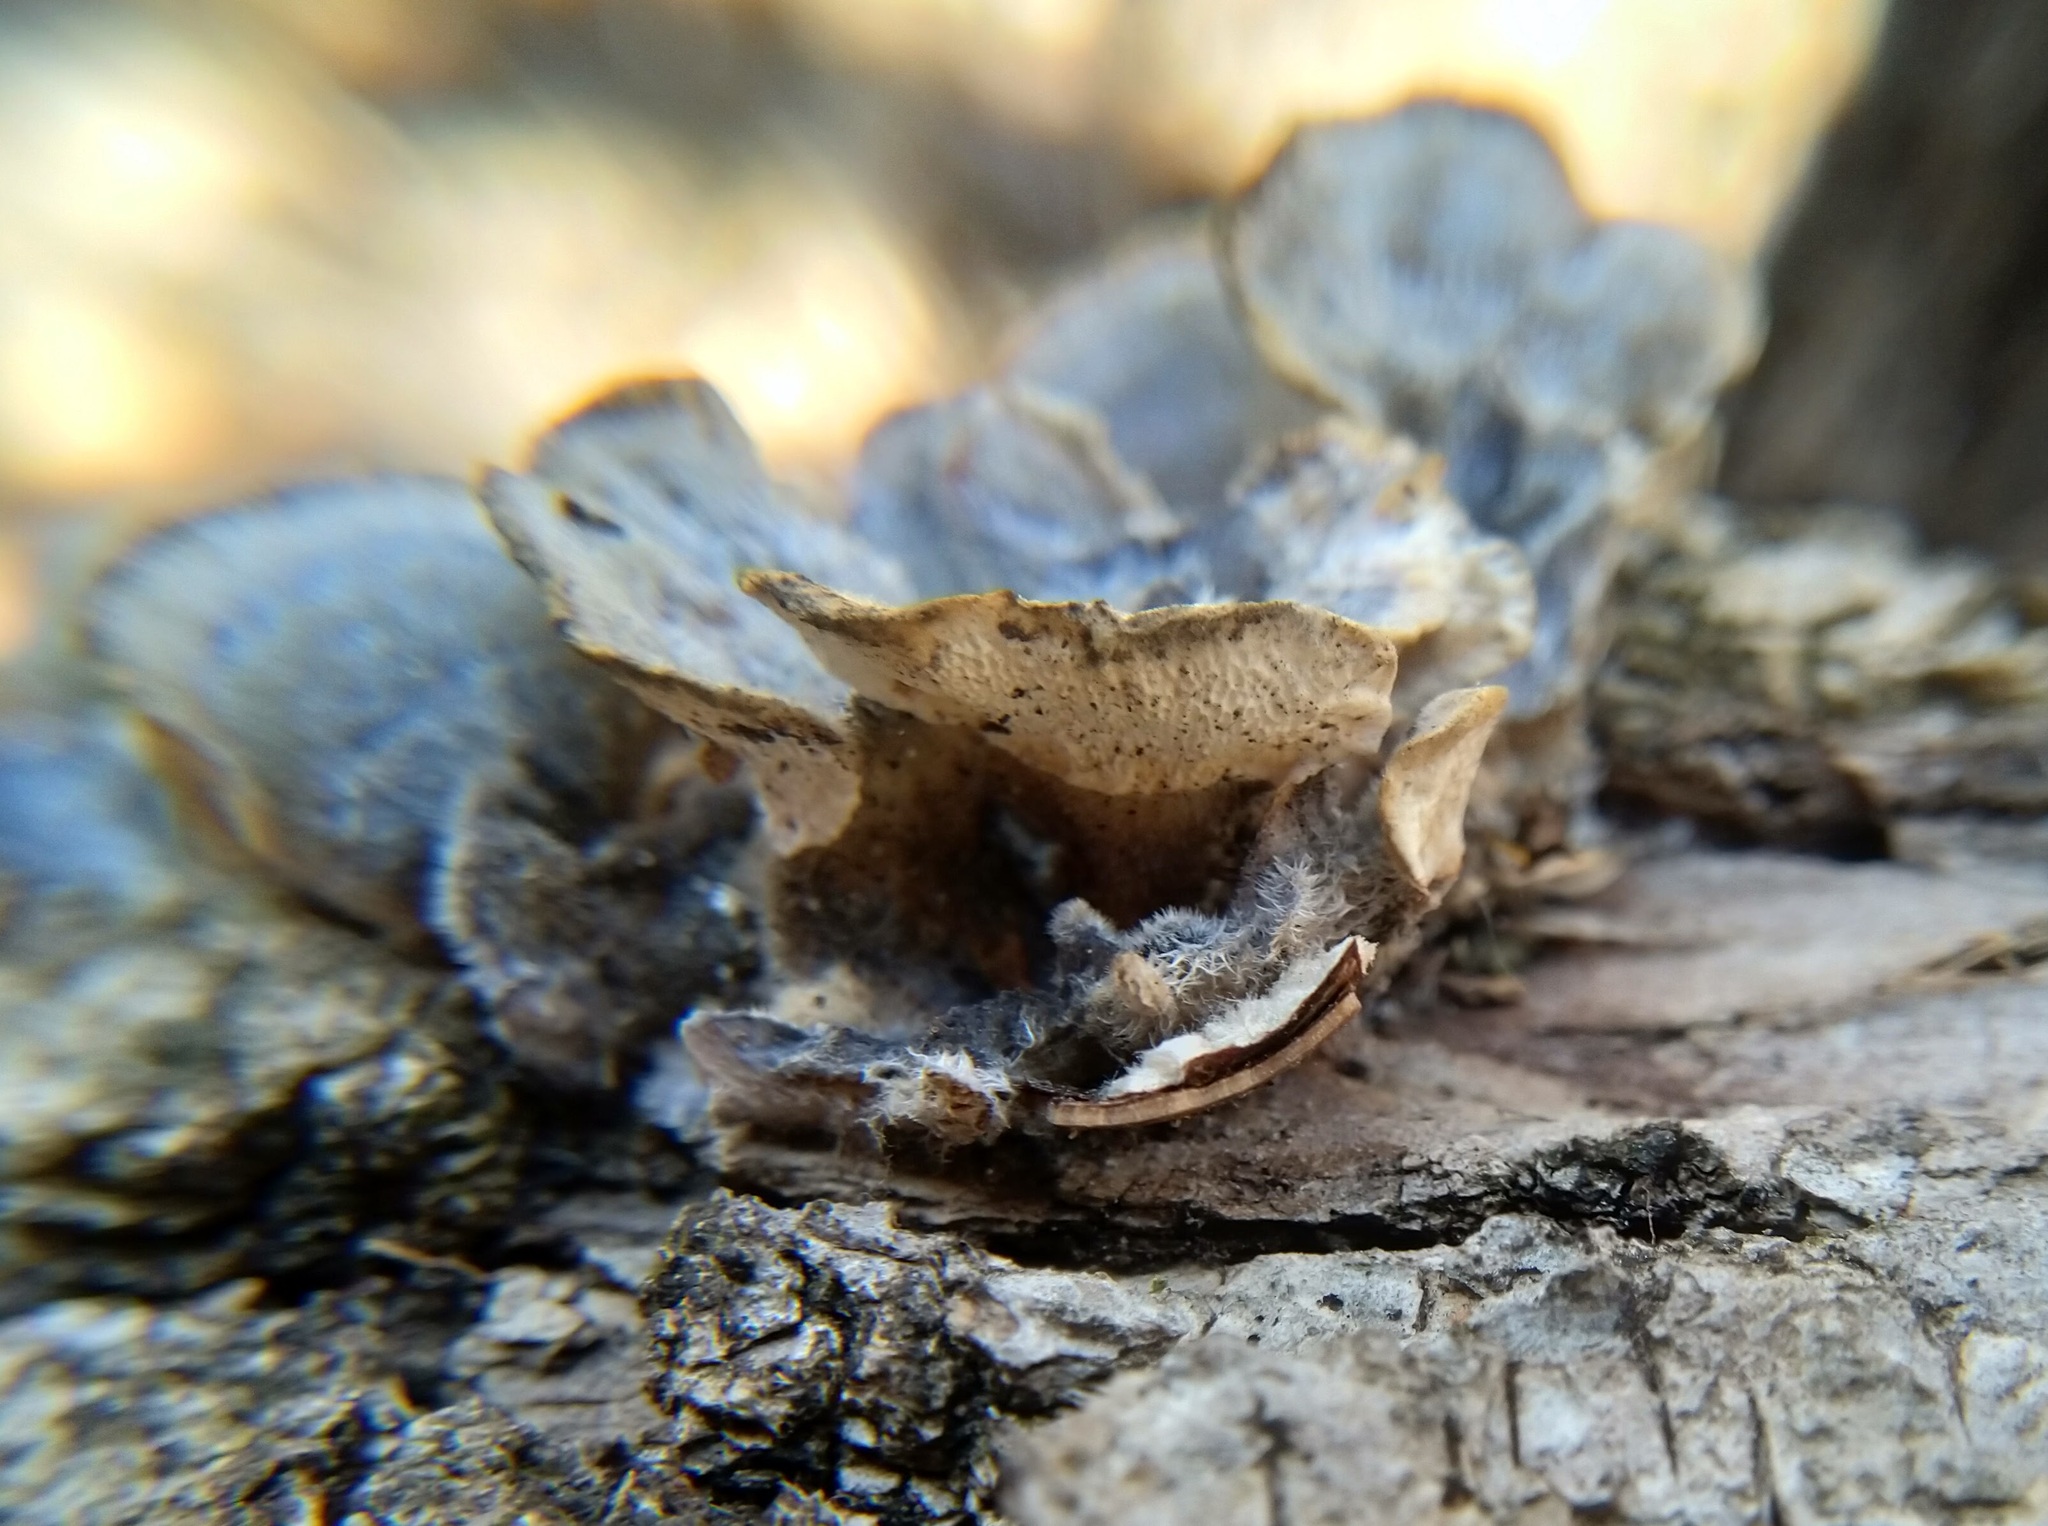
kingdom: Fungi
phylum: Basidiomycota
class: Agaricomycetes
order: Polyporales
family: Polyporaceae
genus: Trametes
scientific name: Trametes versicolor
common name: Turkeytail
